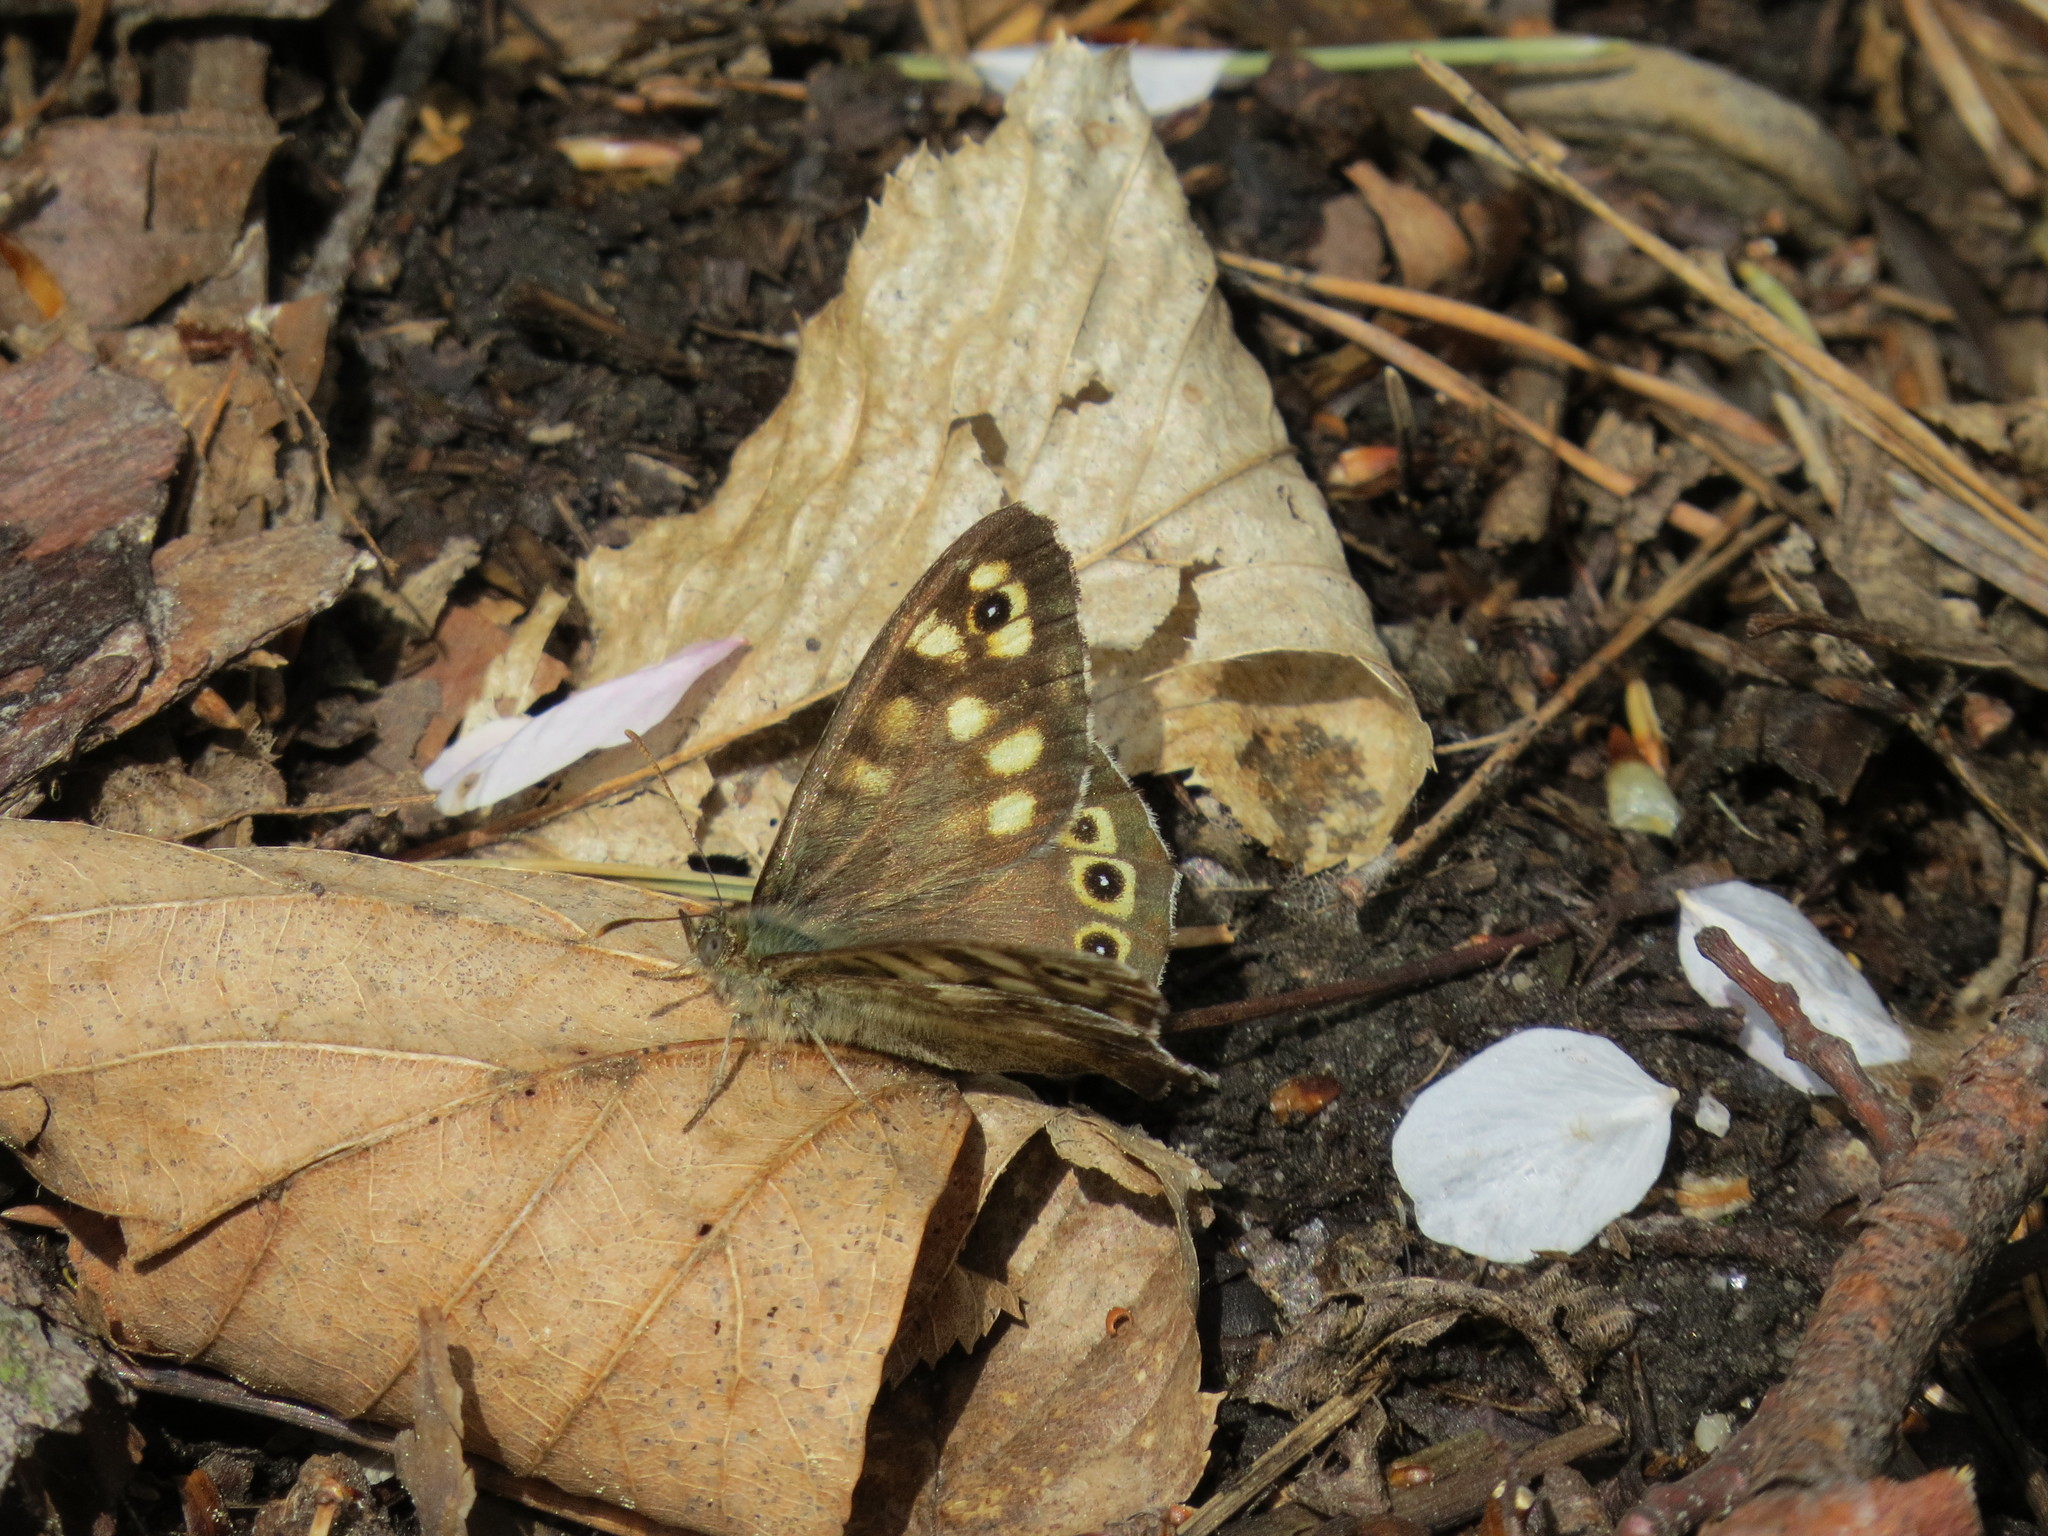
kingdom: Animalia
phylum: Arthropoda
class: Insecta
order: Lepidoptera
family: Nymphalidae
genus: Pararge
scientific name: Pararge aegeria
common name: Speckled wood
